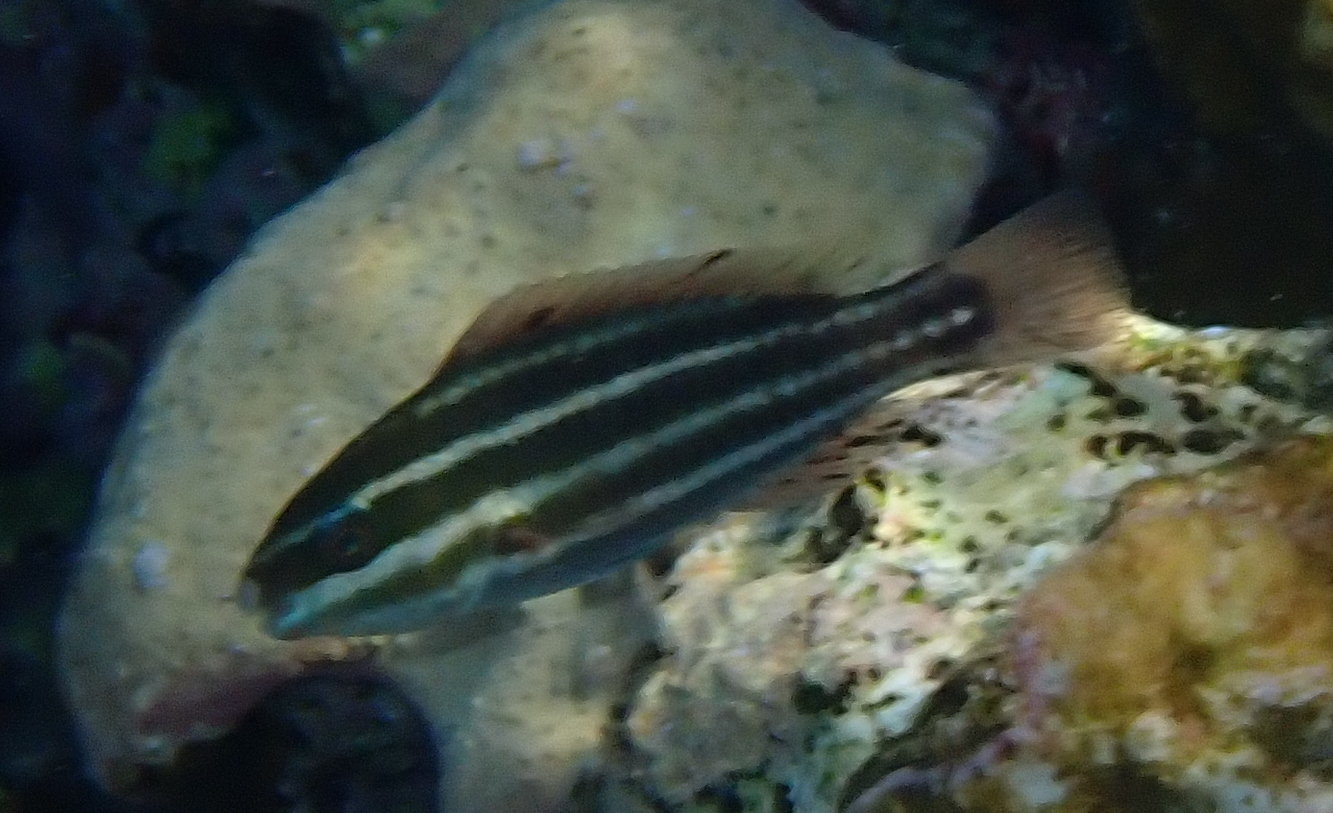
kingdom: Animalia
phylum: Chordata
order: Perciformes
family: Scaridae
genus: Chlorurus
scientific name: Chlorurus sordidus
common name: Bullethead parrotfish
